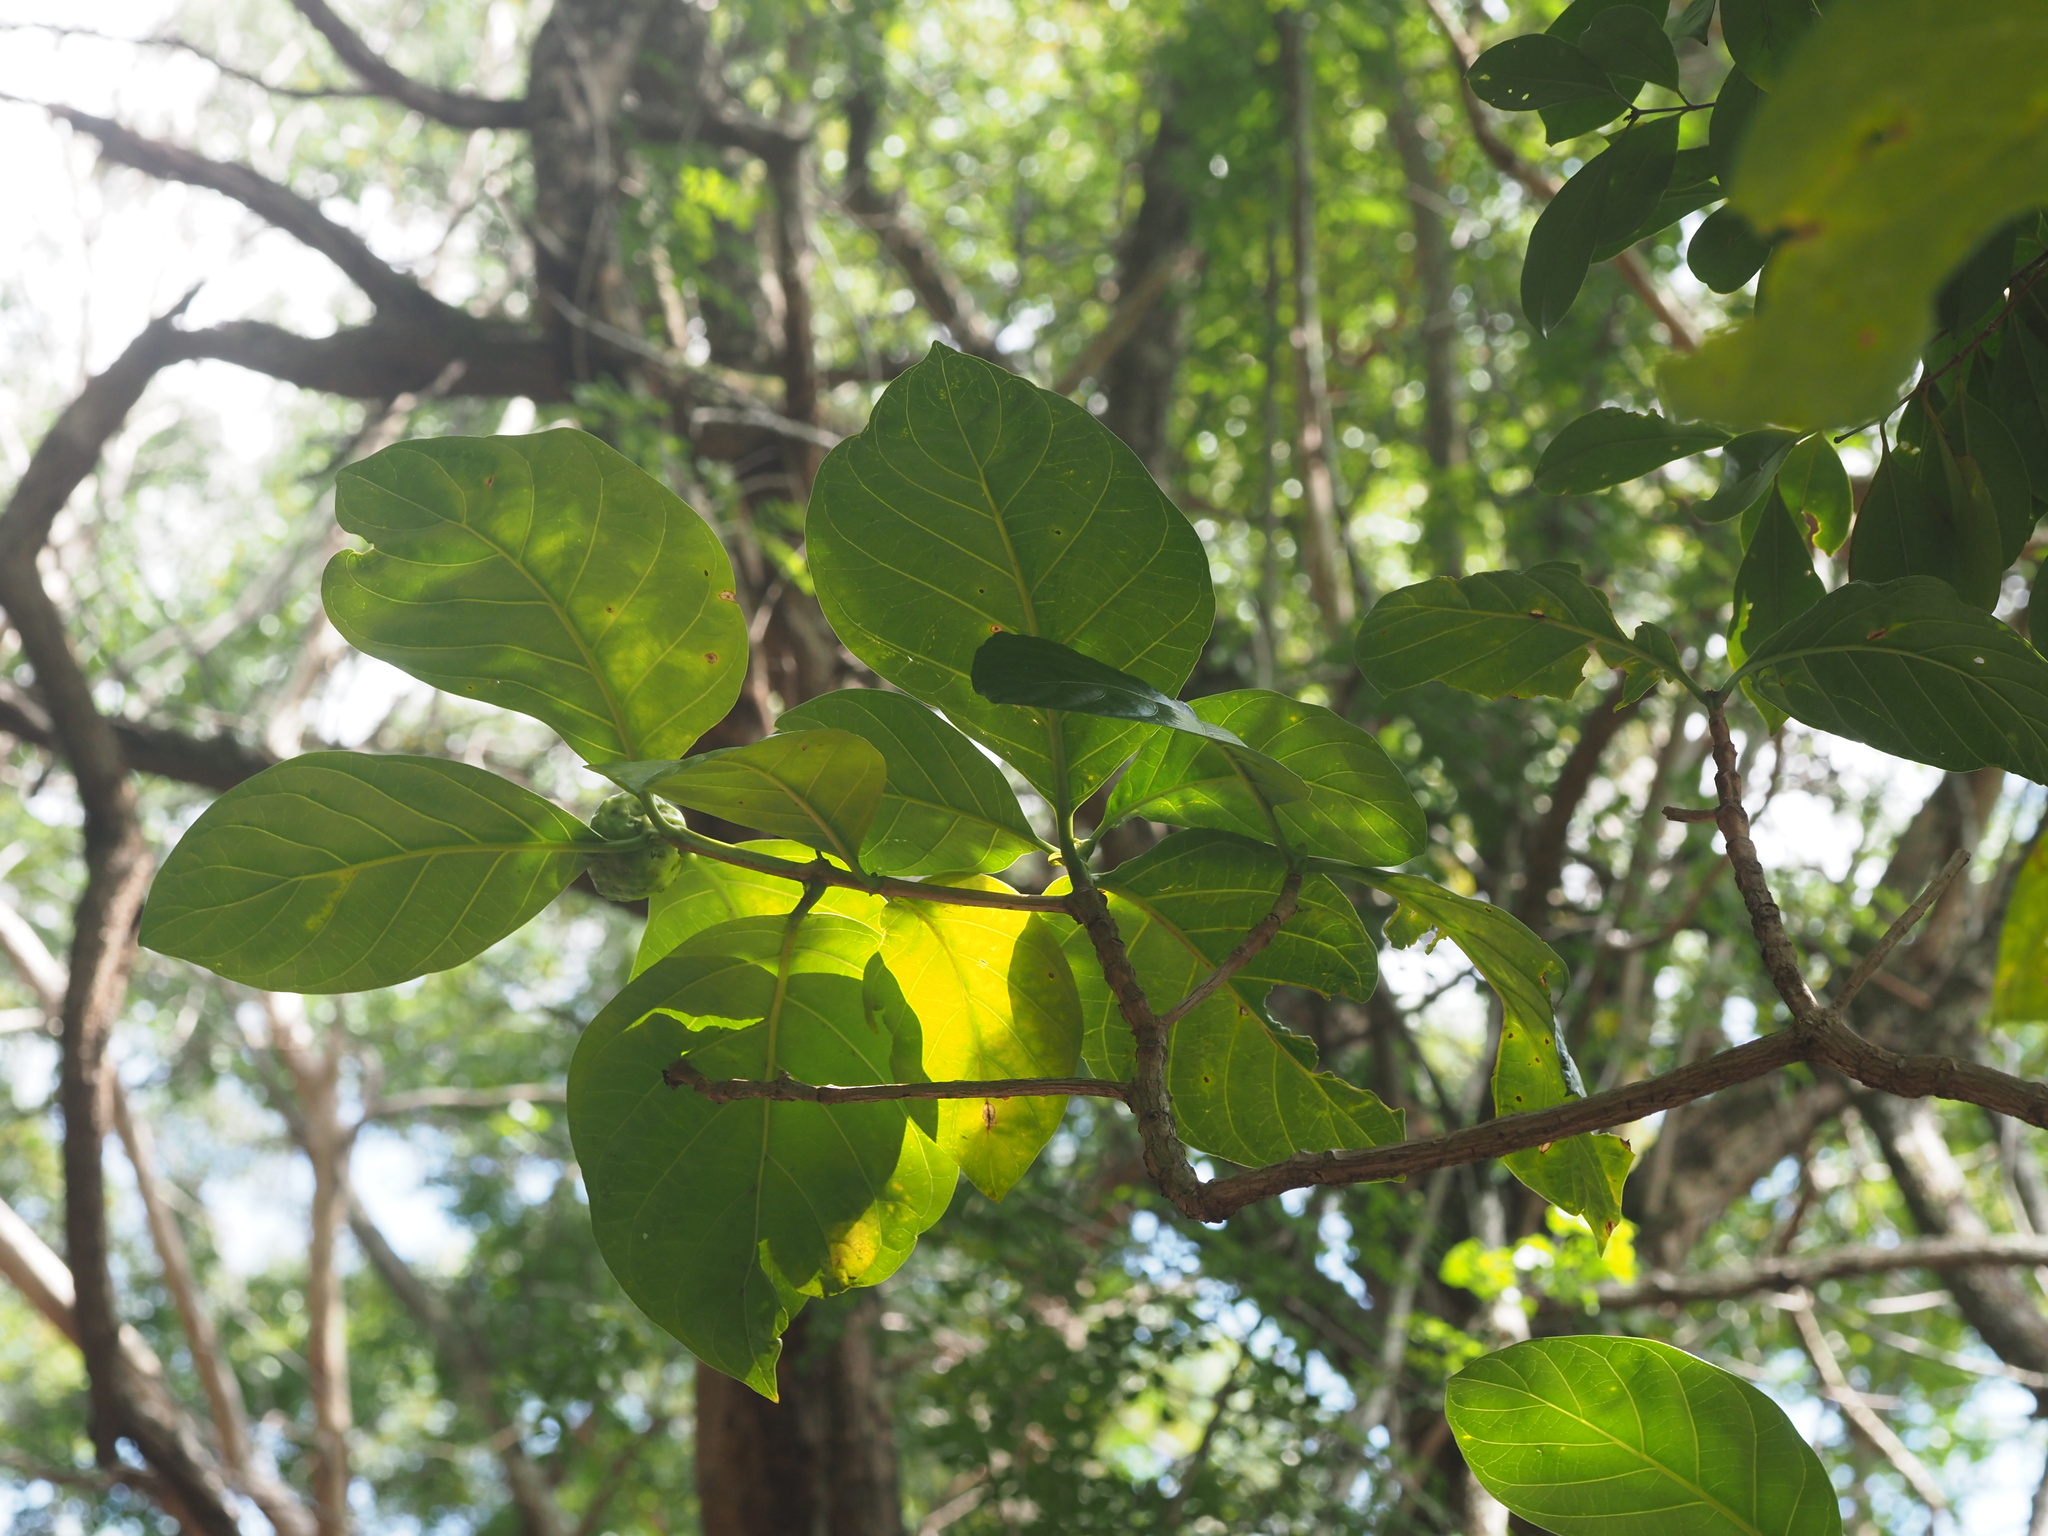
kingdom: Plantae
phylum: Tracheophyta
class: Magnoliopsida
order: Gentianales
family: Rubiaceae
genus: Morinda
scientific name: Morinda citrifolia
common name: Indian-mulberry
